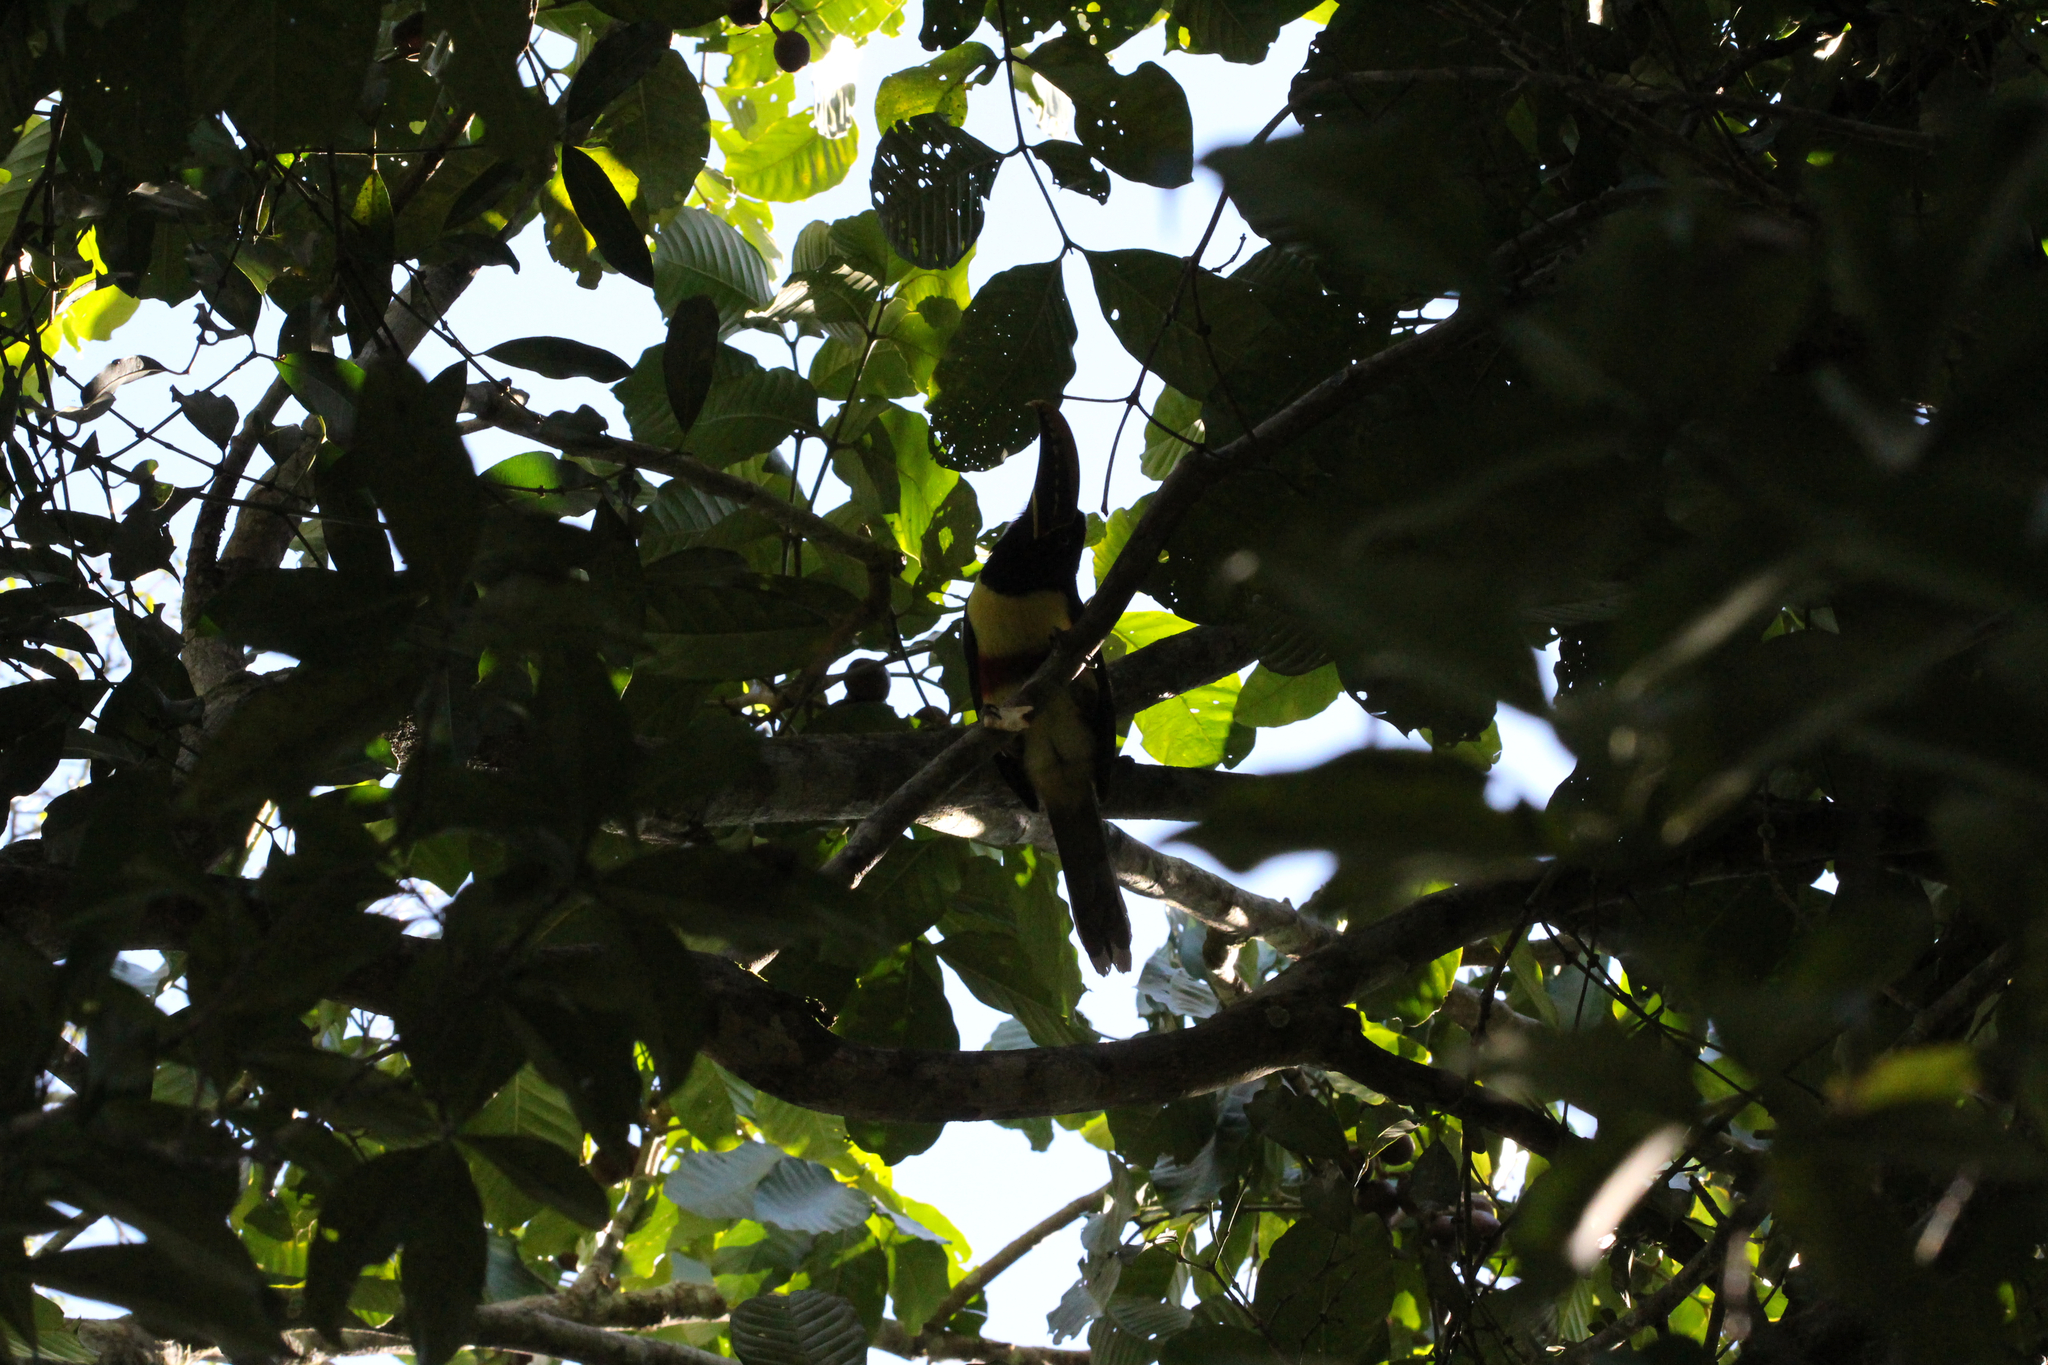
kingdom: Animalia
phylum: Chordata
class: Aves
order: Piciformes
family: Ramphastidae
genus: Pteroglossus
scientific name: Pteroglossus castanotis
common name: Chestnut-eared aracari
